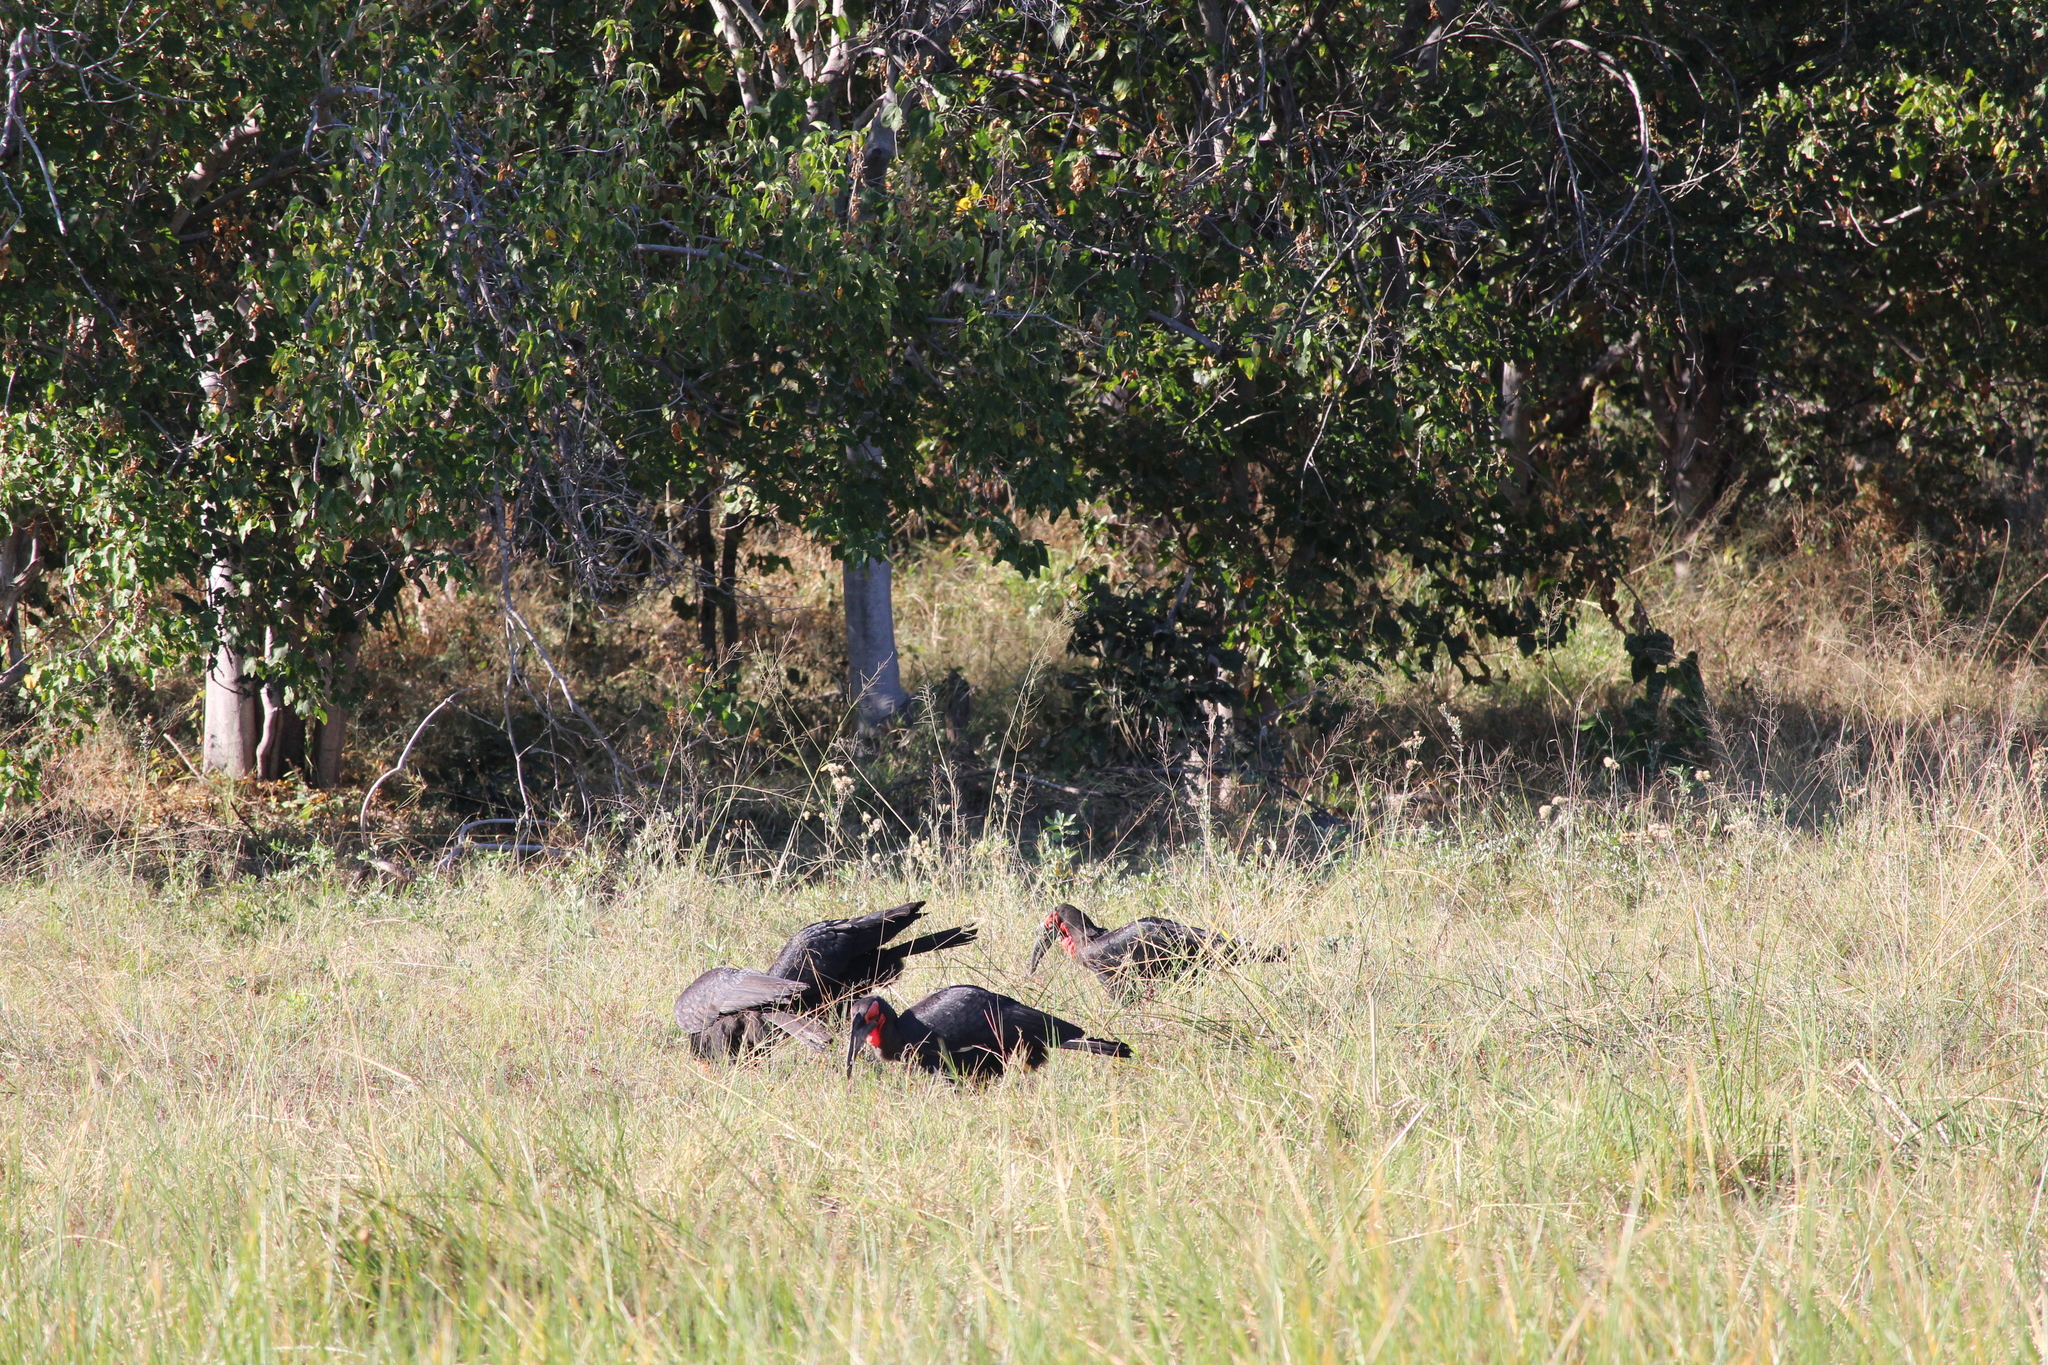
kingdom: Animalia
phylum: Chordata
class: Aves
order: Bucerotiformes
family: Bucorvidae
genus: Bucorvus
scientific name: Bucorvus leadbeateri
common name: Southern ground-hornbill
